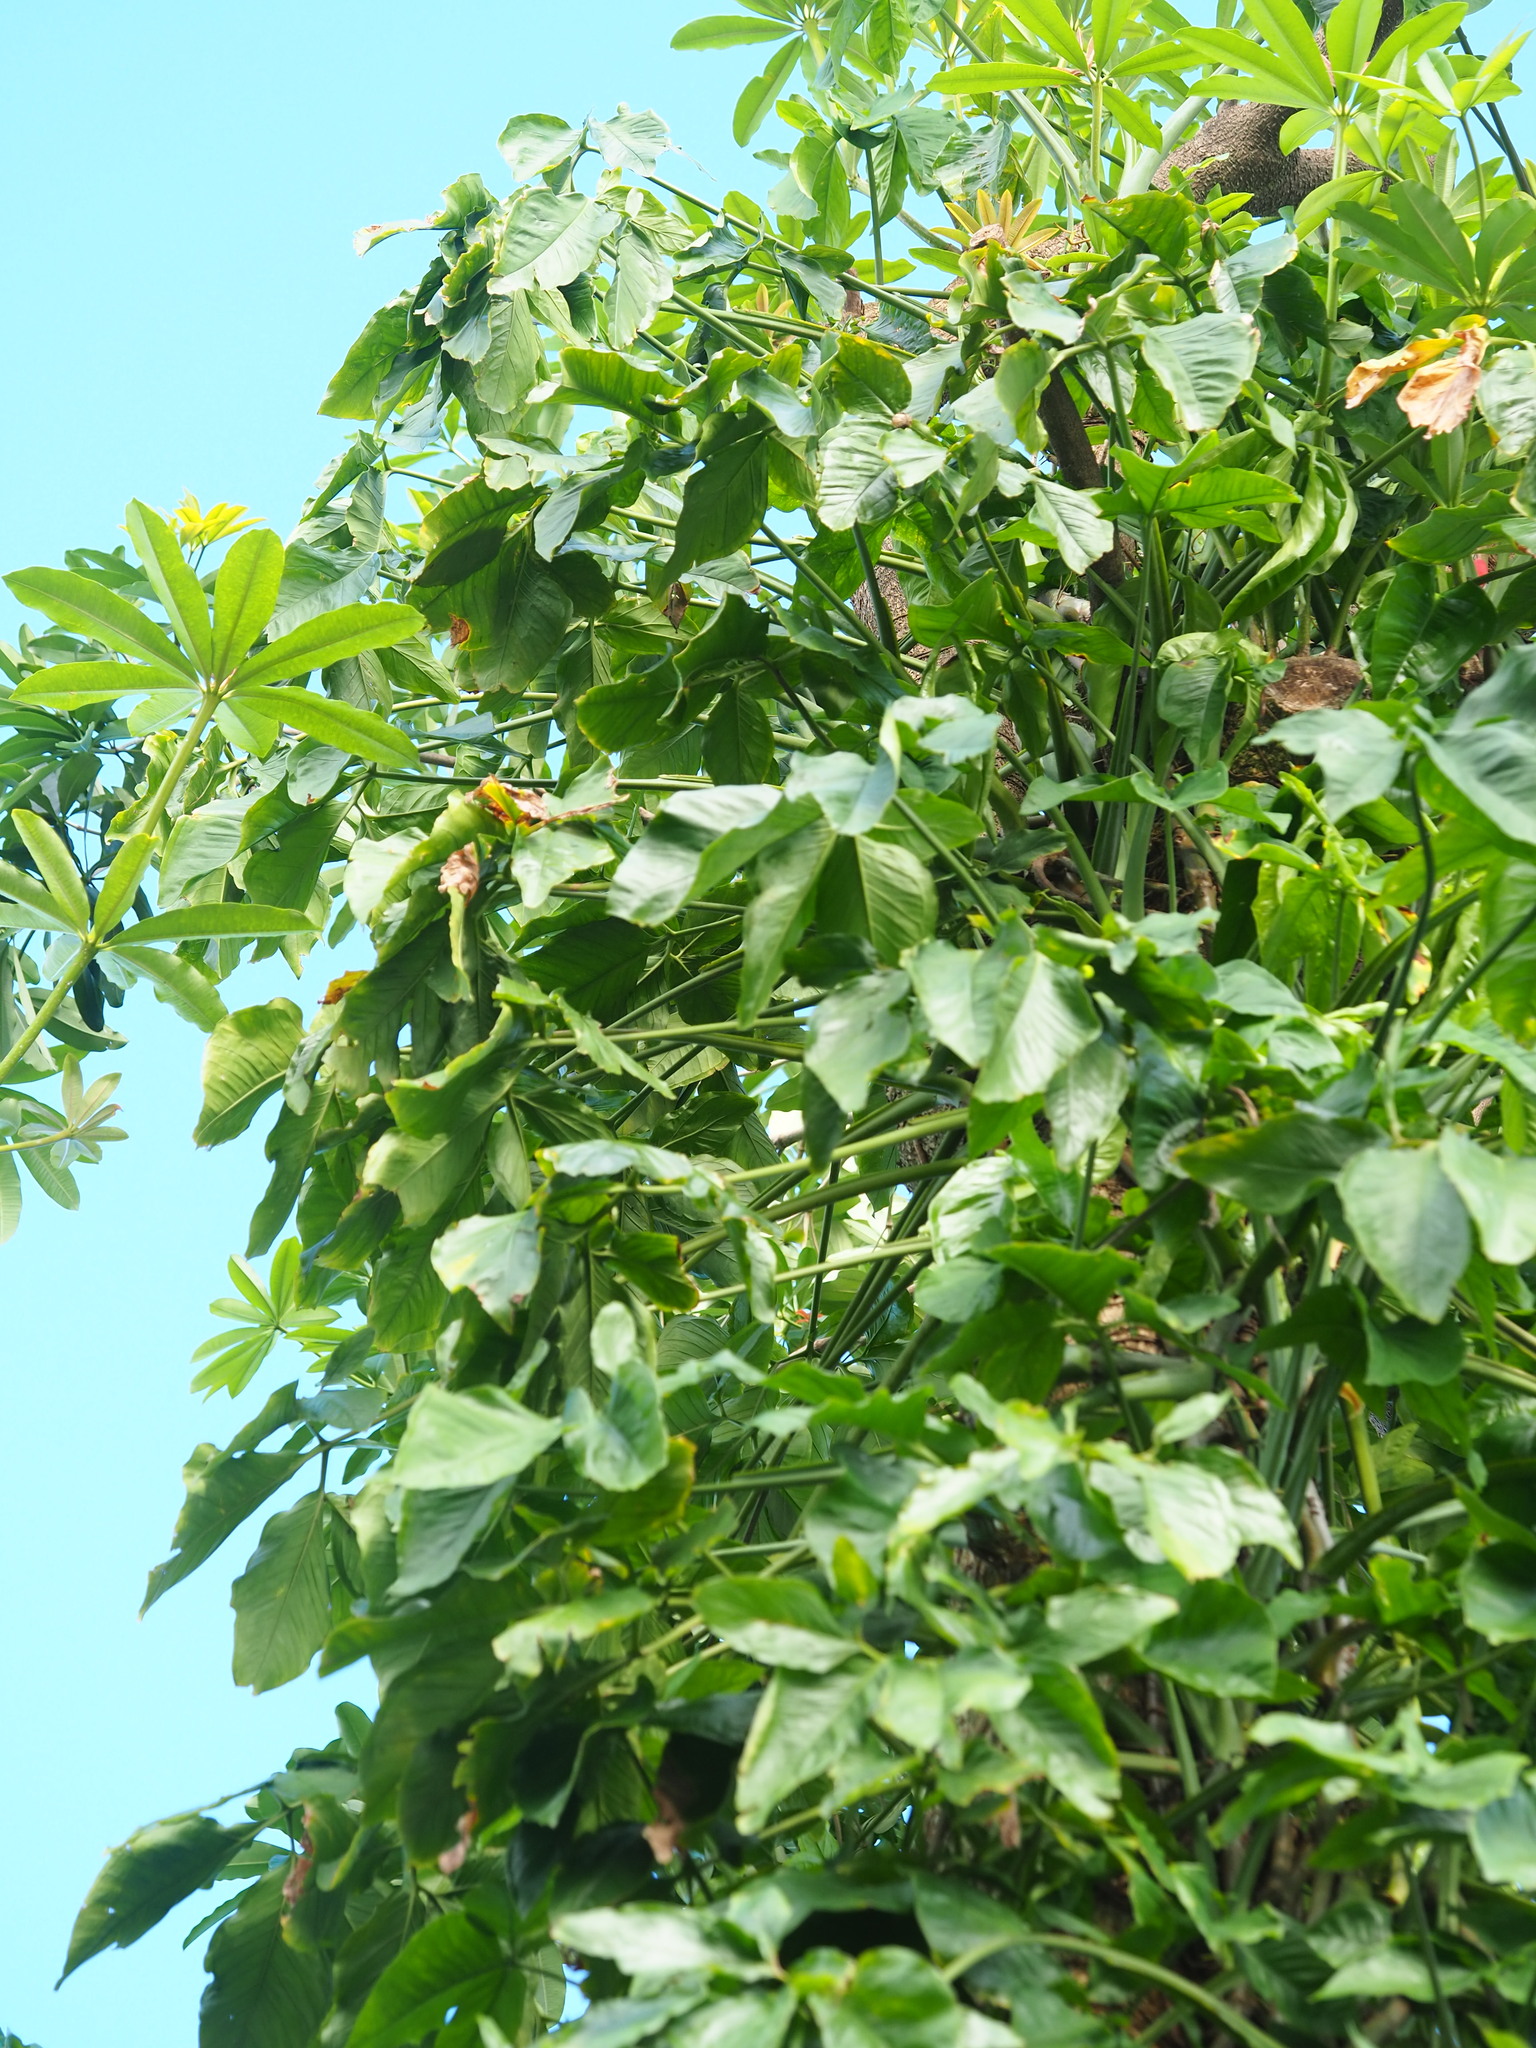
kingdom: Plantae
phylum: Tracheophyta
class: Liliopsida
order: Alismatales
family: Araceae
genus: Syngonium
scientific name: Syngonium angustatum
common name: Fivefingers
